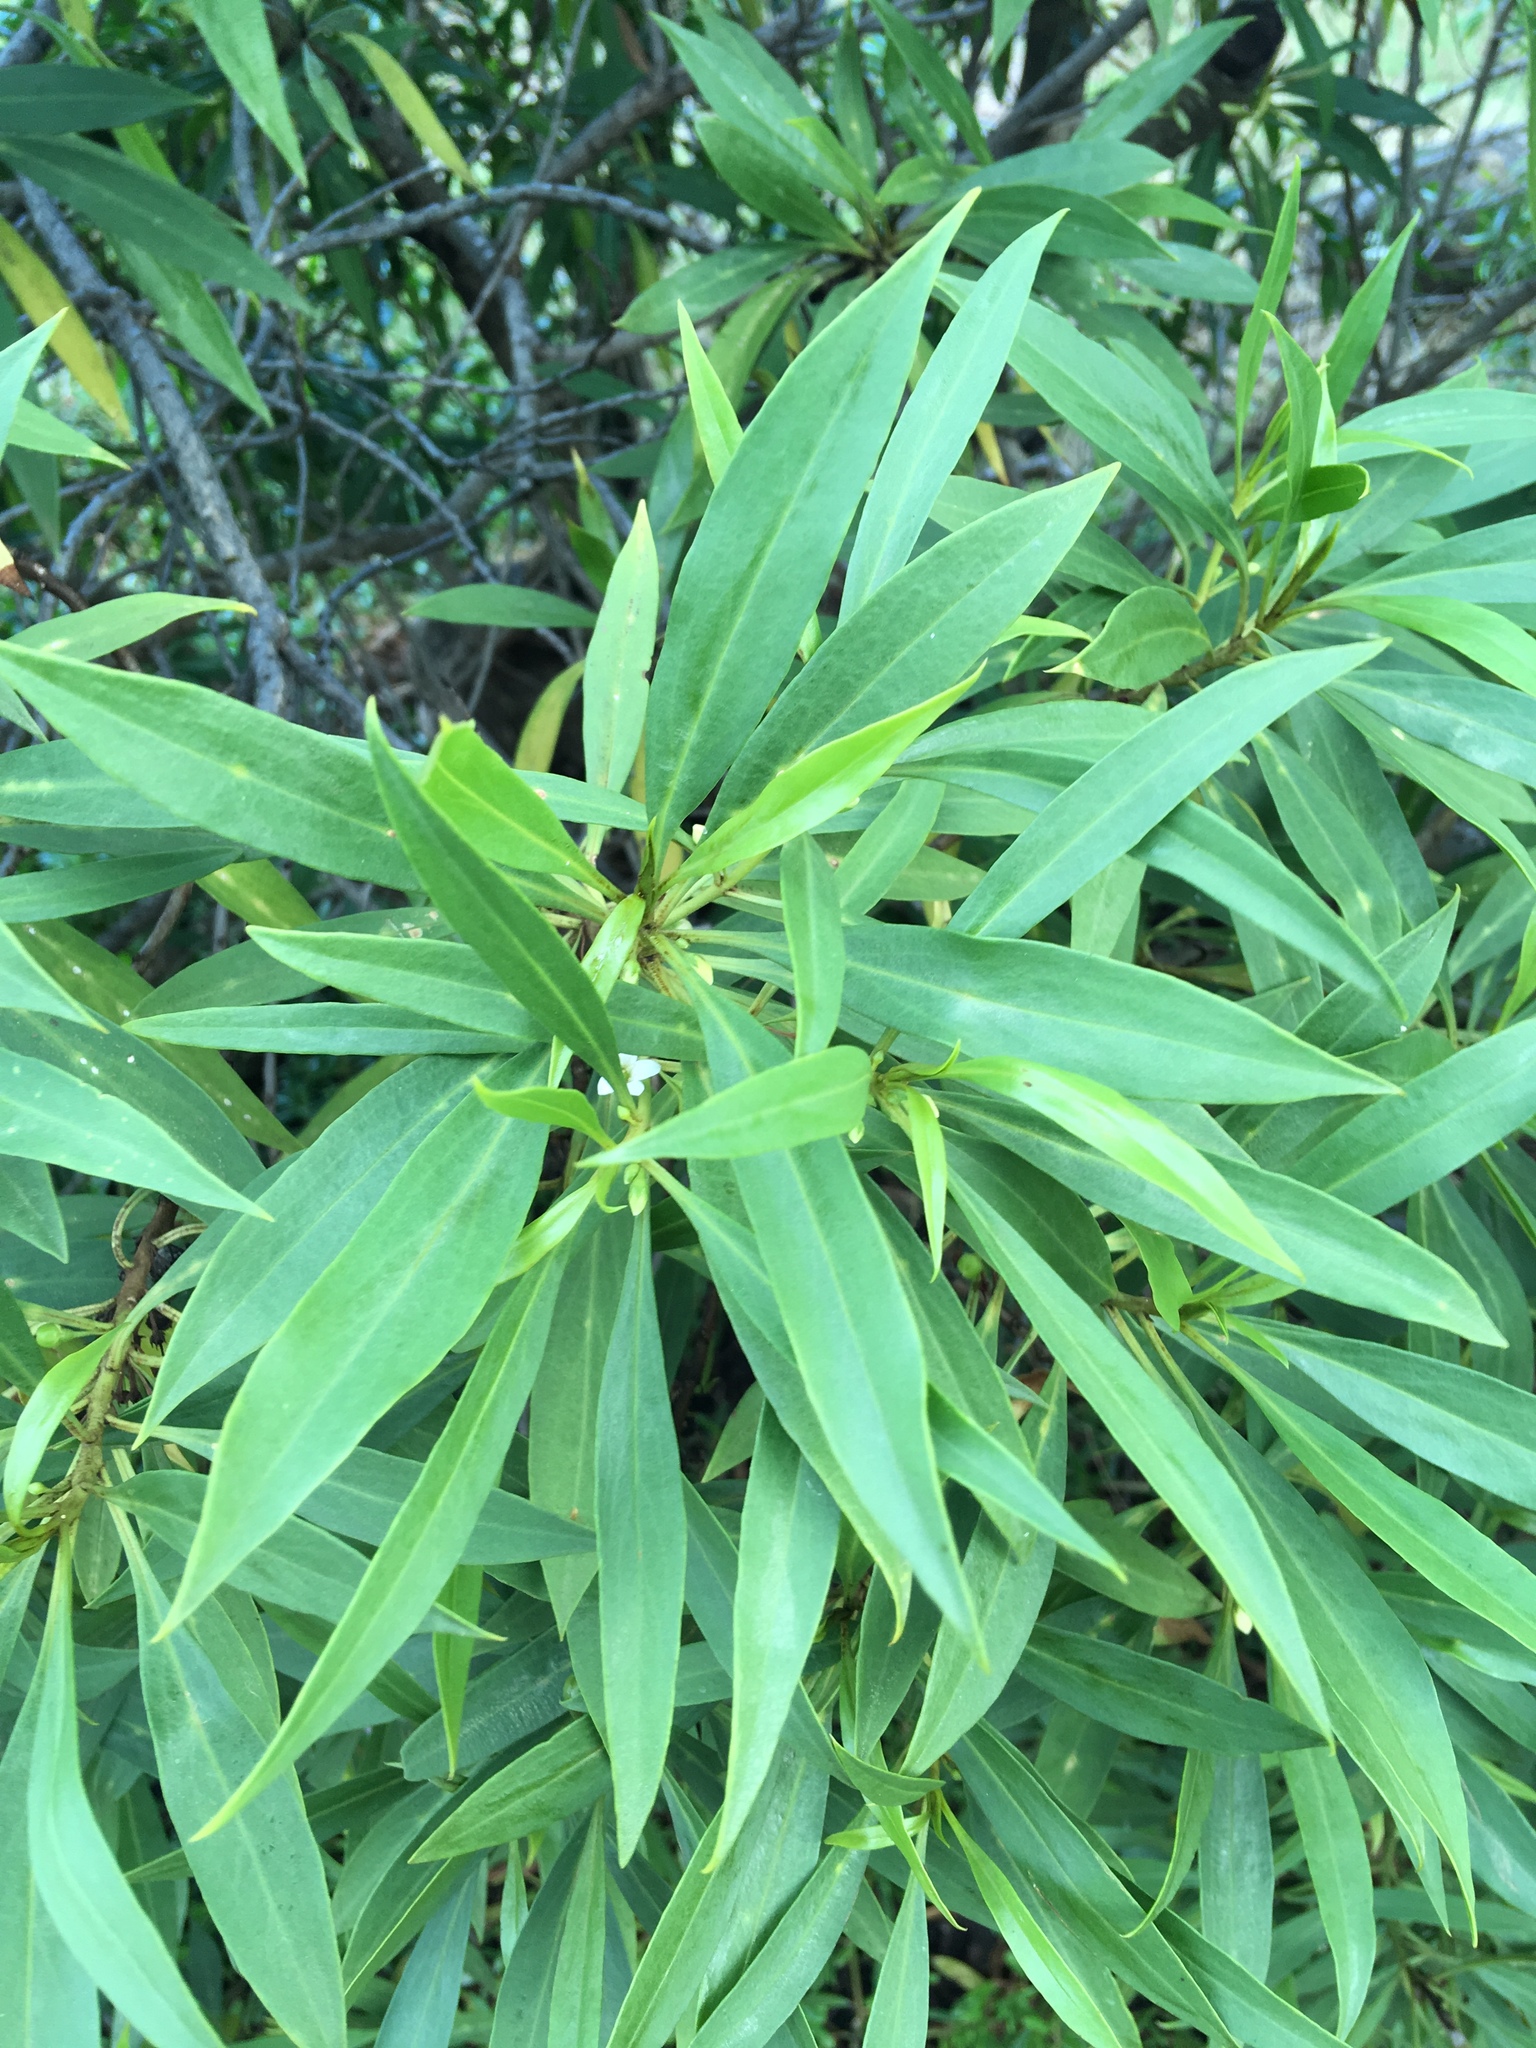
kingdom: Plantae
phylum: Tracheophyta
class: Magnoliopsida
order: Lamiales
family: Scrophulariaceae
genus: Myoporum
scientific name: Myoporum sandwicense
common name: Bastard-sandalwood
